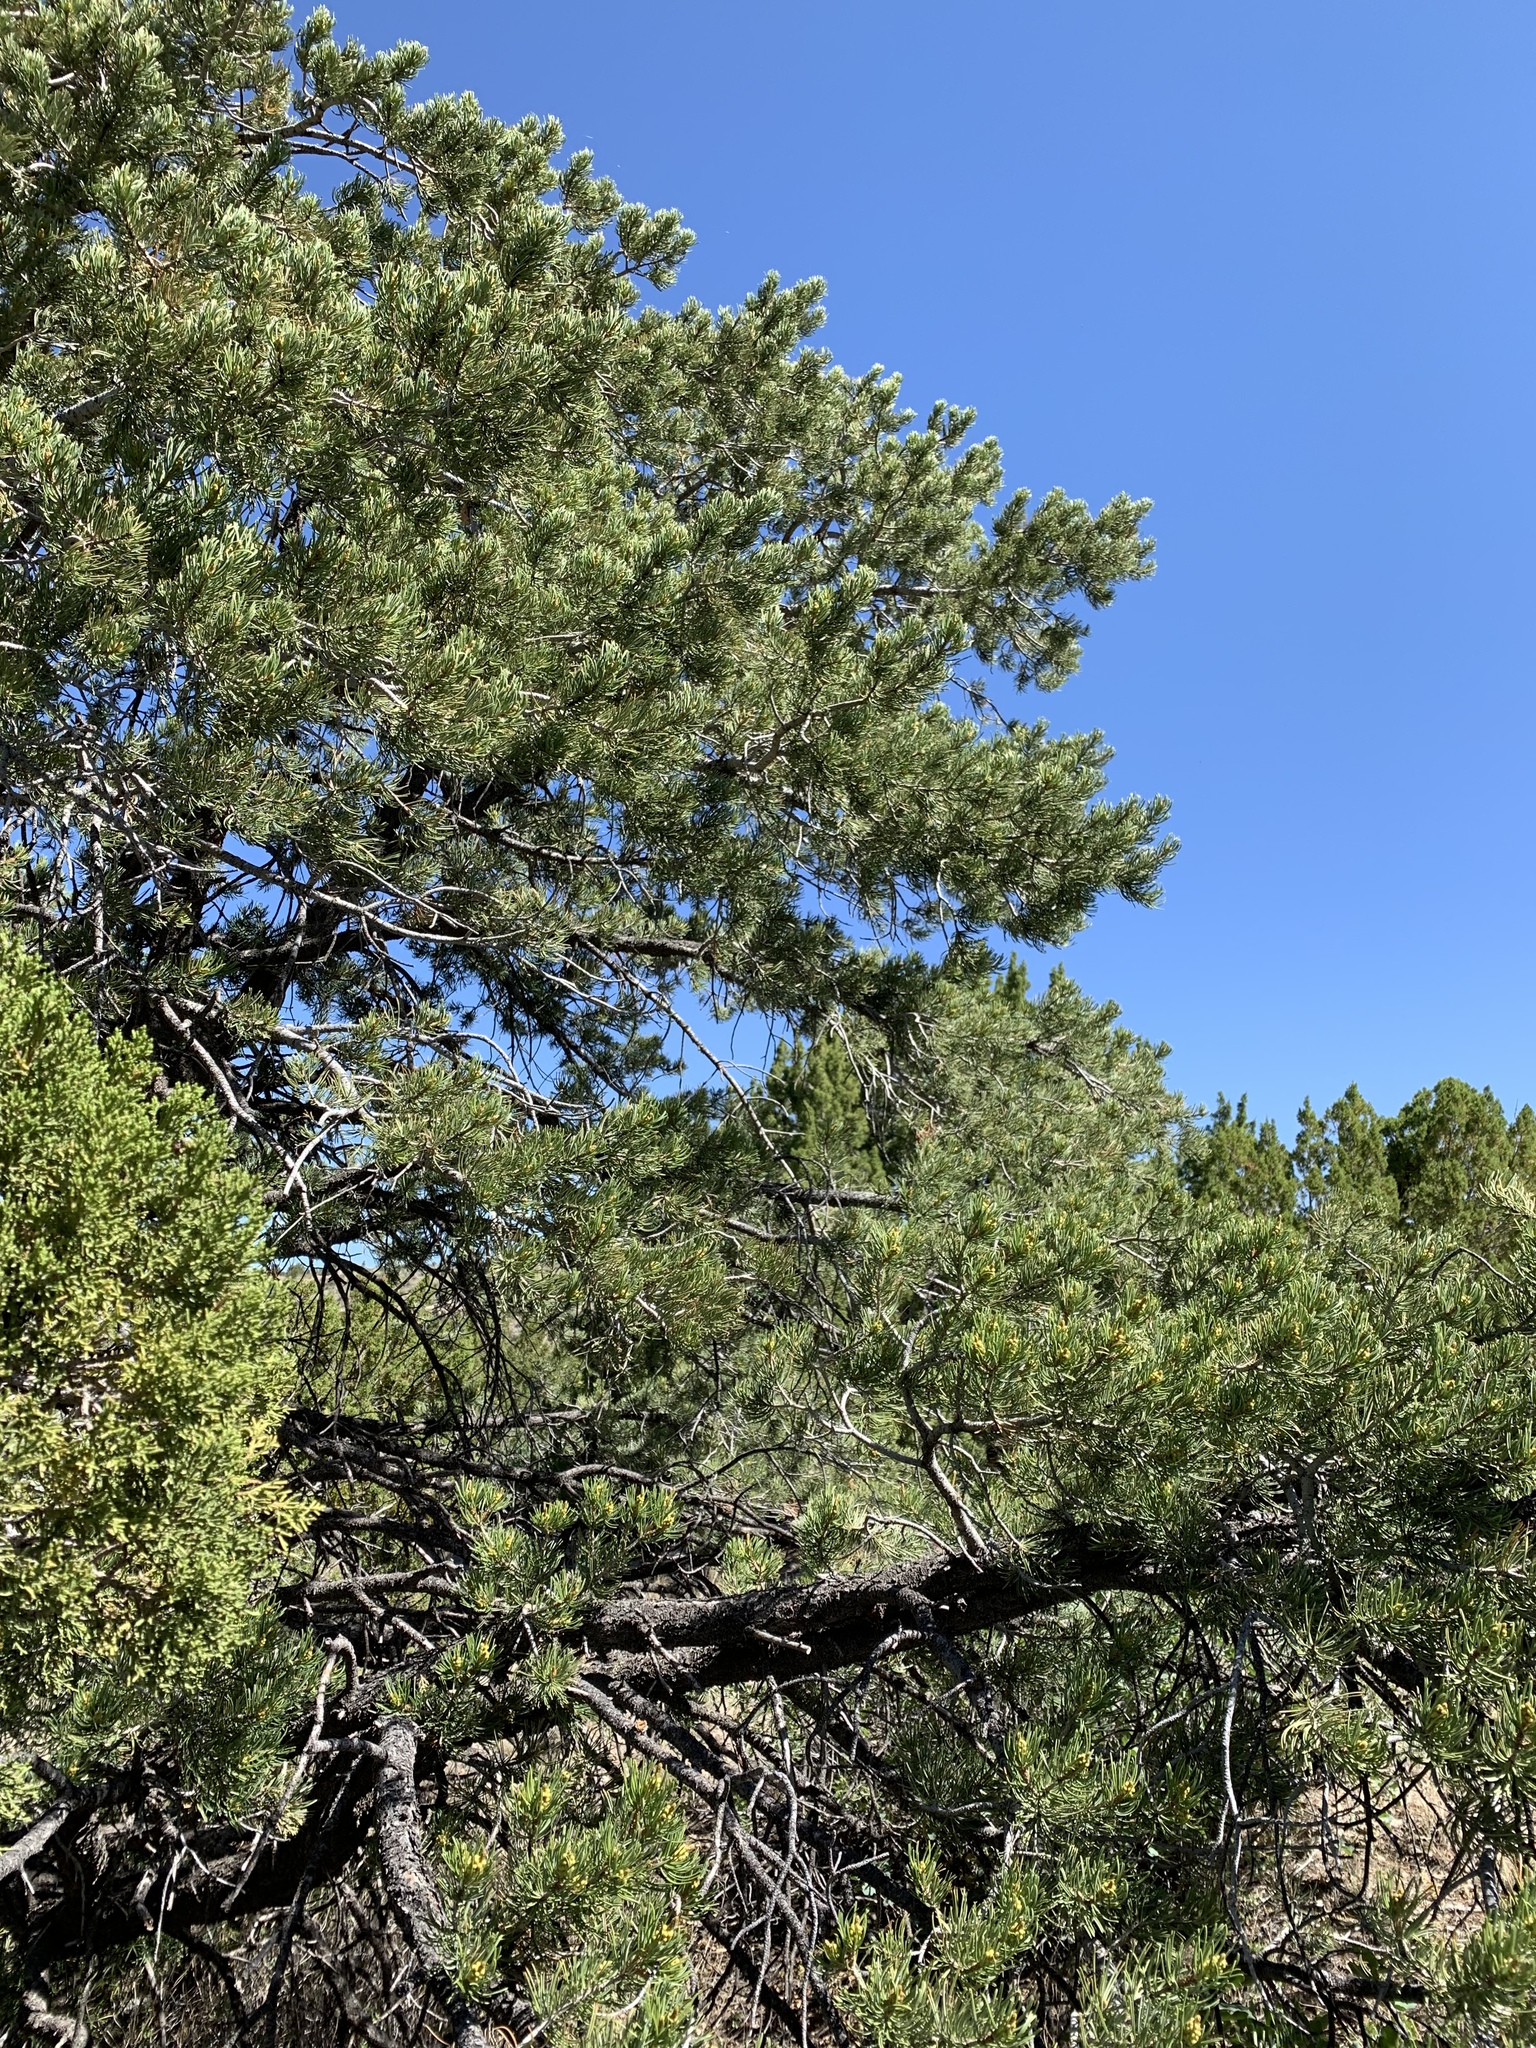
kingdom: Plantae
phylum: Tracheophyta
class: Pinopsida
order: Pinales
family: Pinaceae
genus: Pinus
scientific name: Pinus edulis
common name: Colorado pinyon
